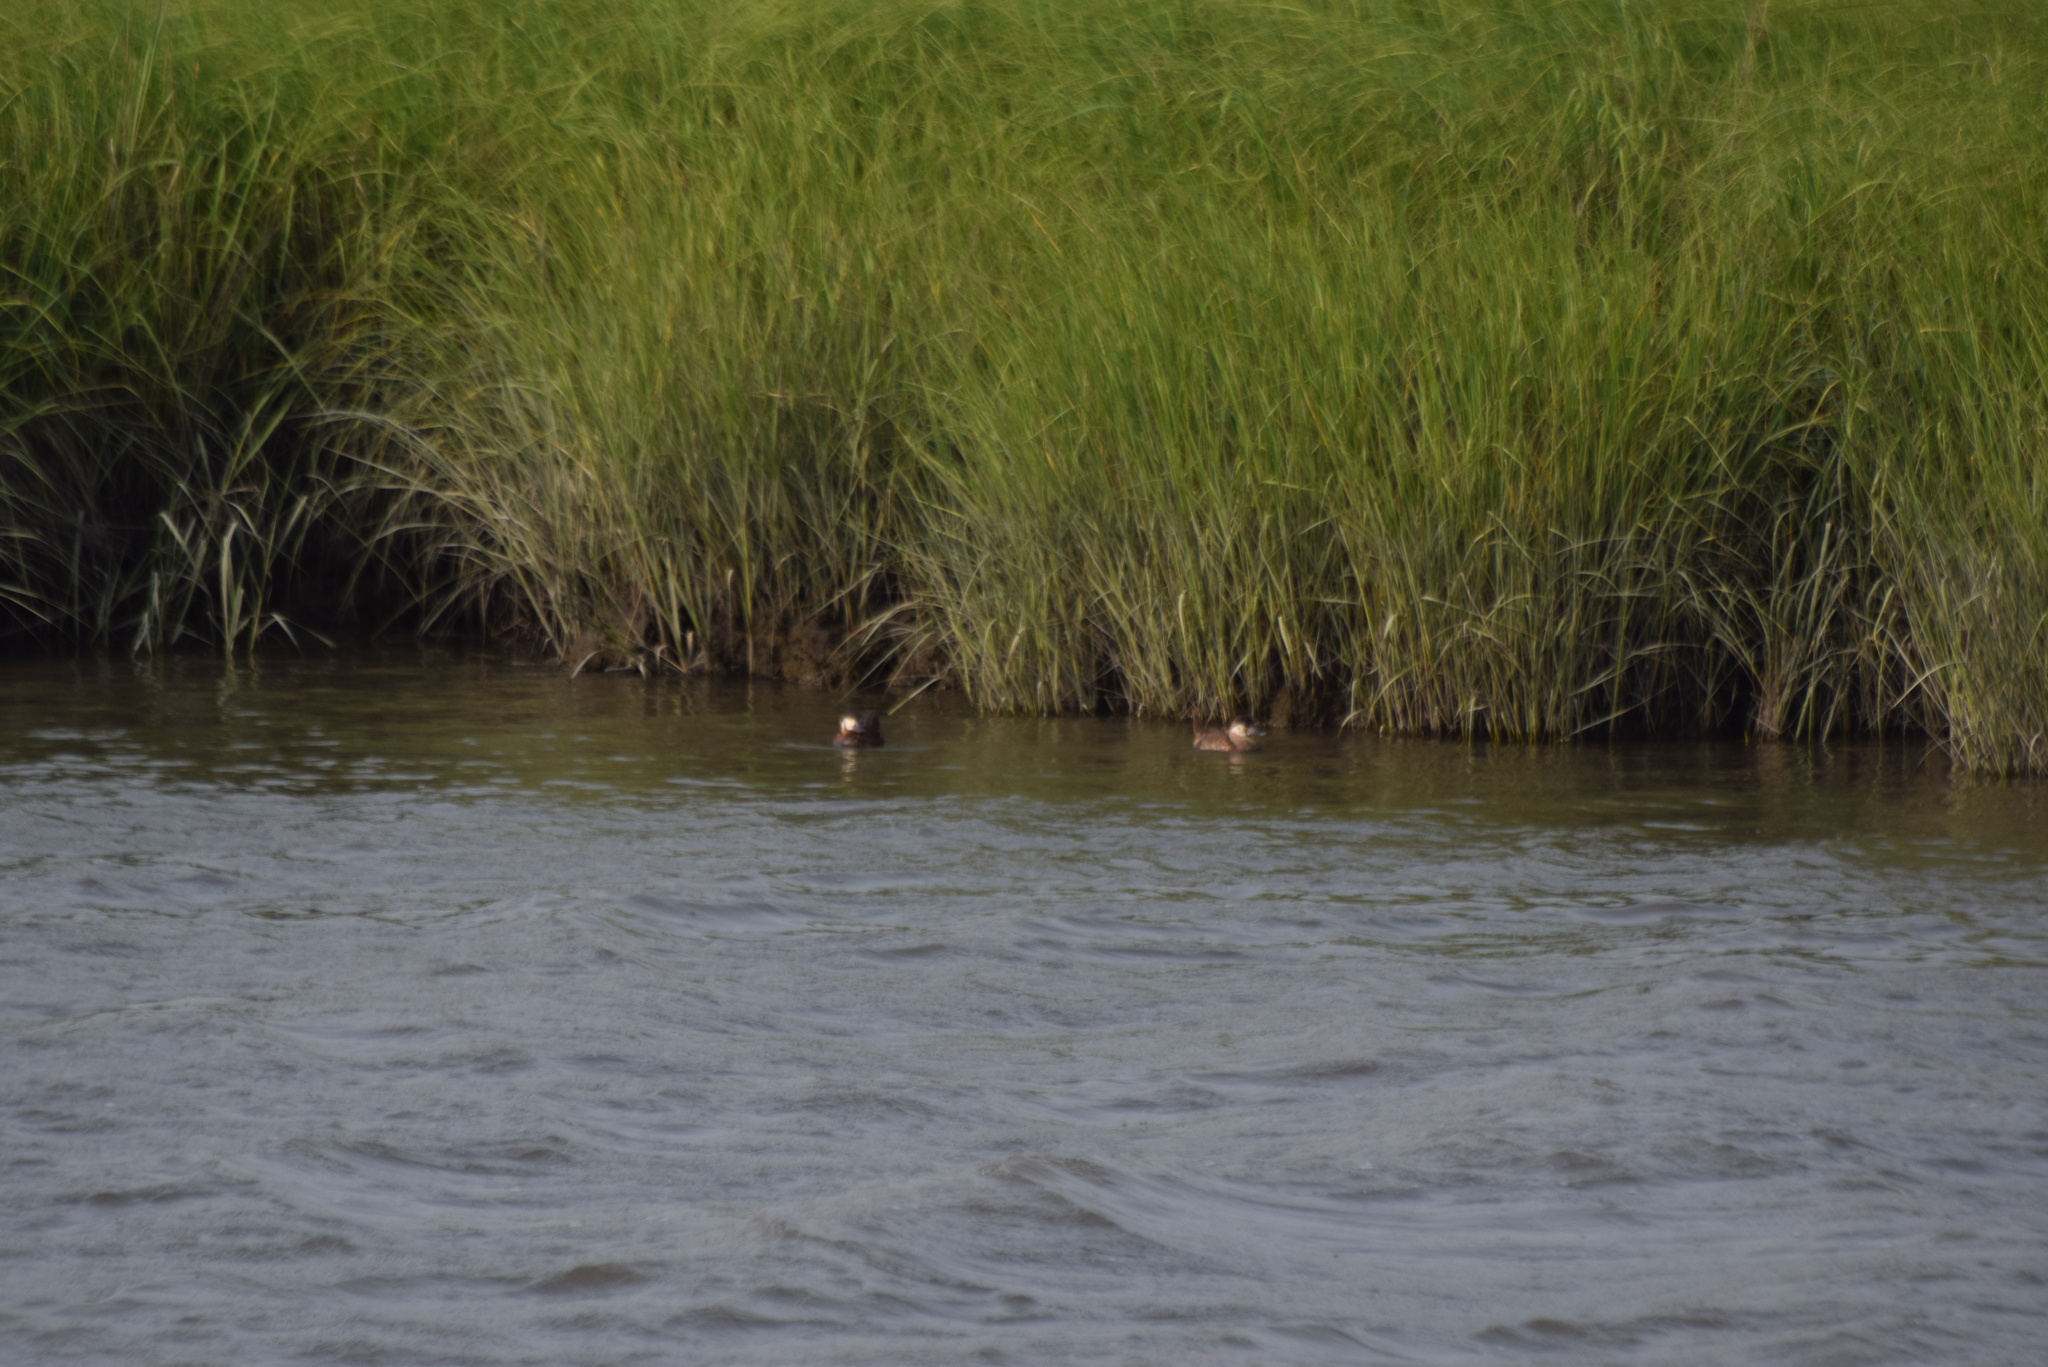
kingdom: Animalia
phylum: Chordata
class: Aves
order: Anseriformes
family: Anatidae
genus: Oxyura
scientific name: Oxyura jamaicensis
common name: Ruddy duck
